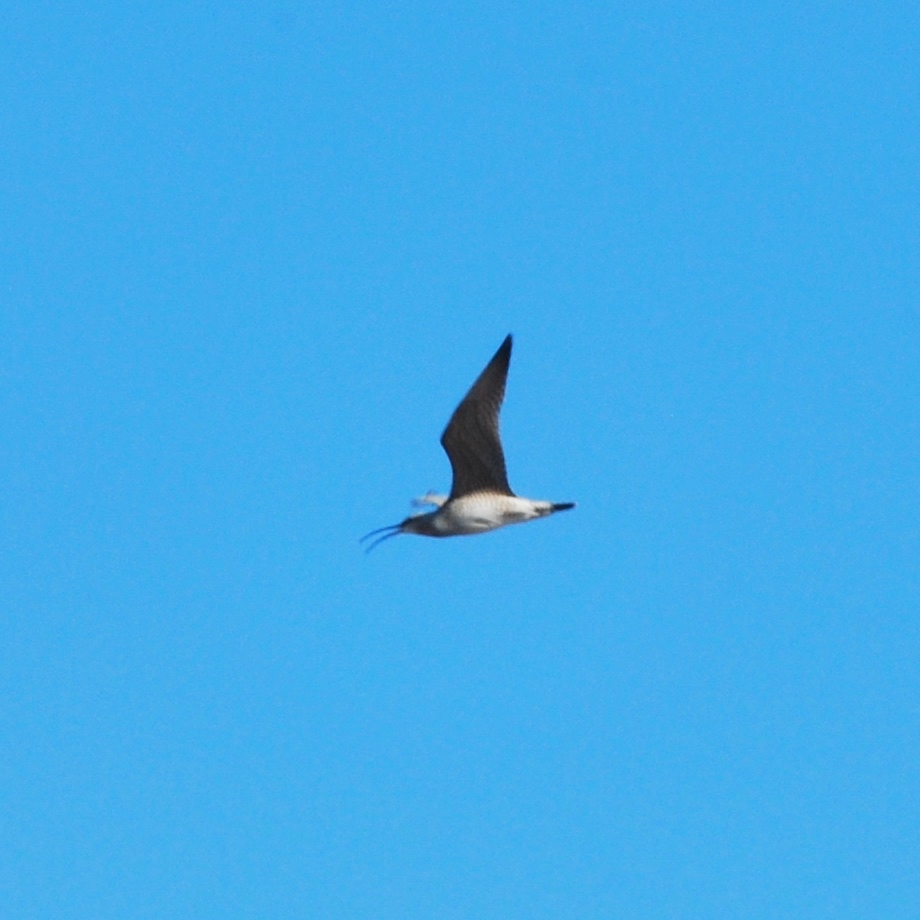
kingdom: Animalia
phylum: Chordata
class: Aves
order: Charadriiformes
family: Scolopacidae
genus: Numenius
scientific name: Numenius phaeopus
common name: Whimbrel
